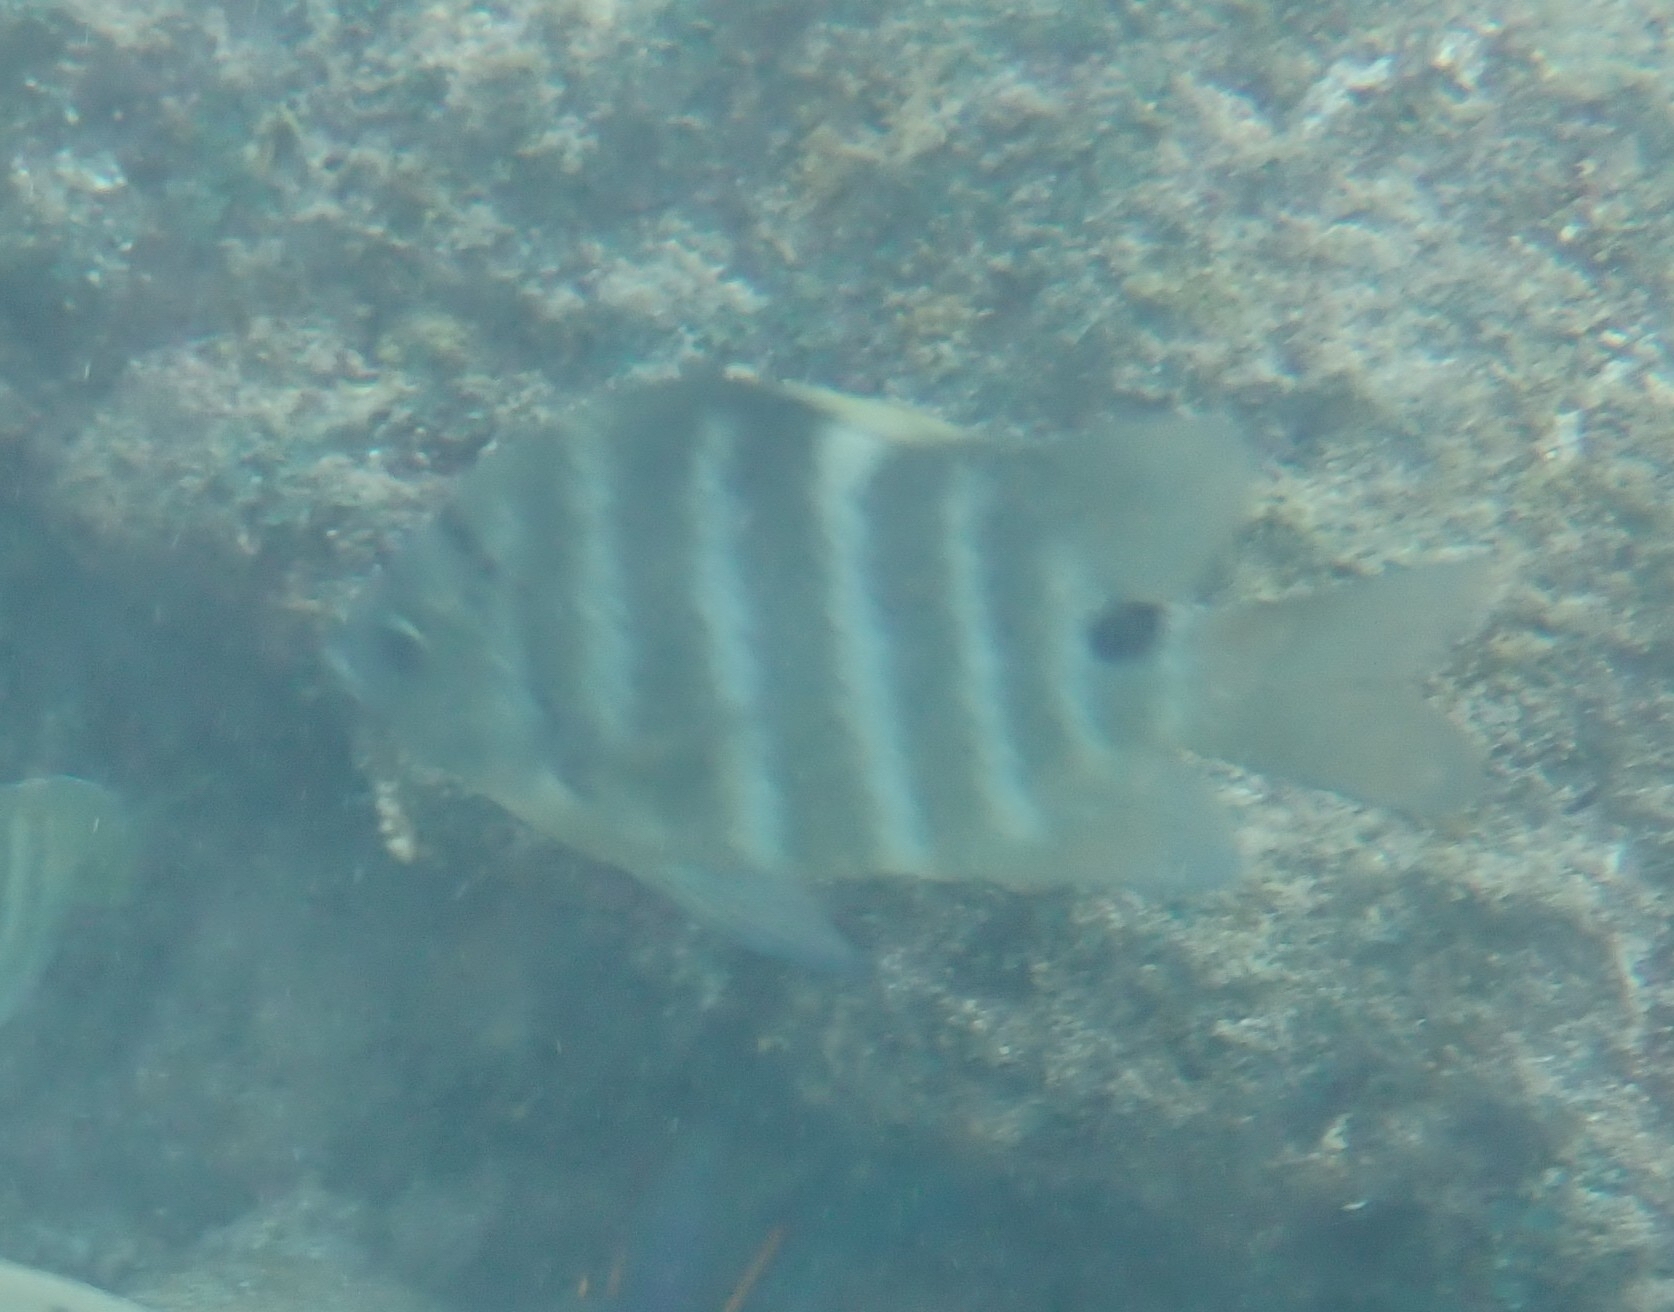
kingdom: Animalia
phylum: Chordata
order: Perciformes
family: Pomacentridae
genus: Abudefduf
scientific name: Abudefduf sordidus
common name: Blackspot sergeant
